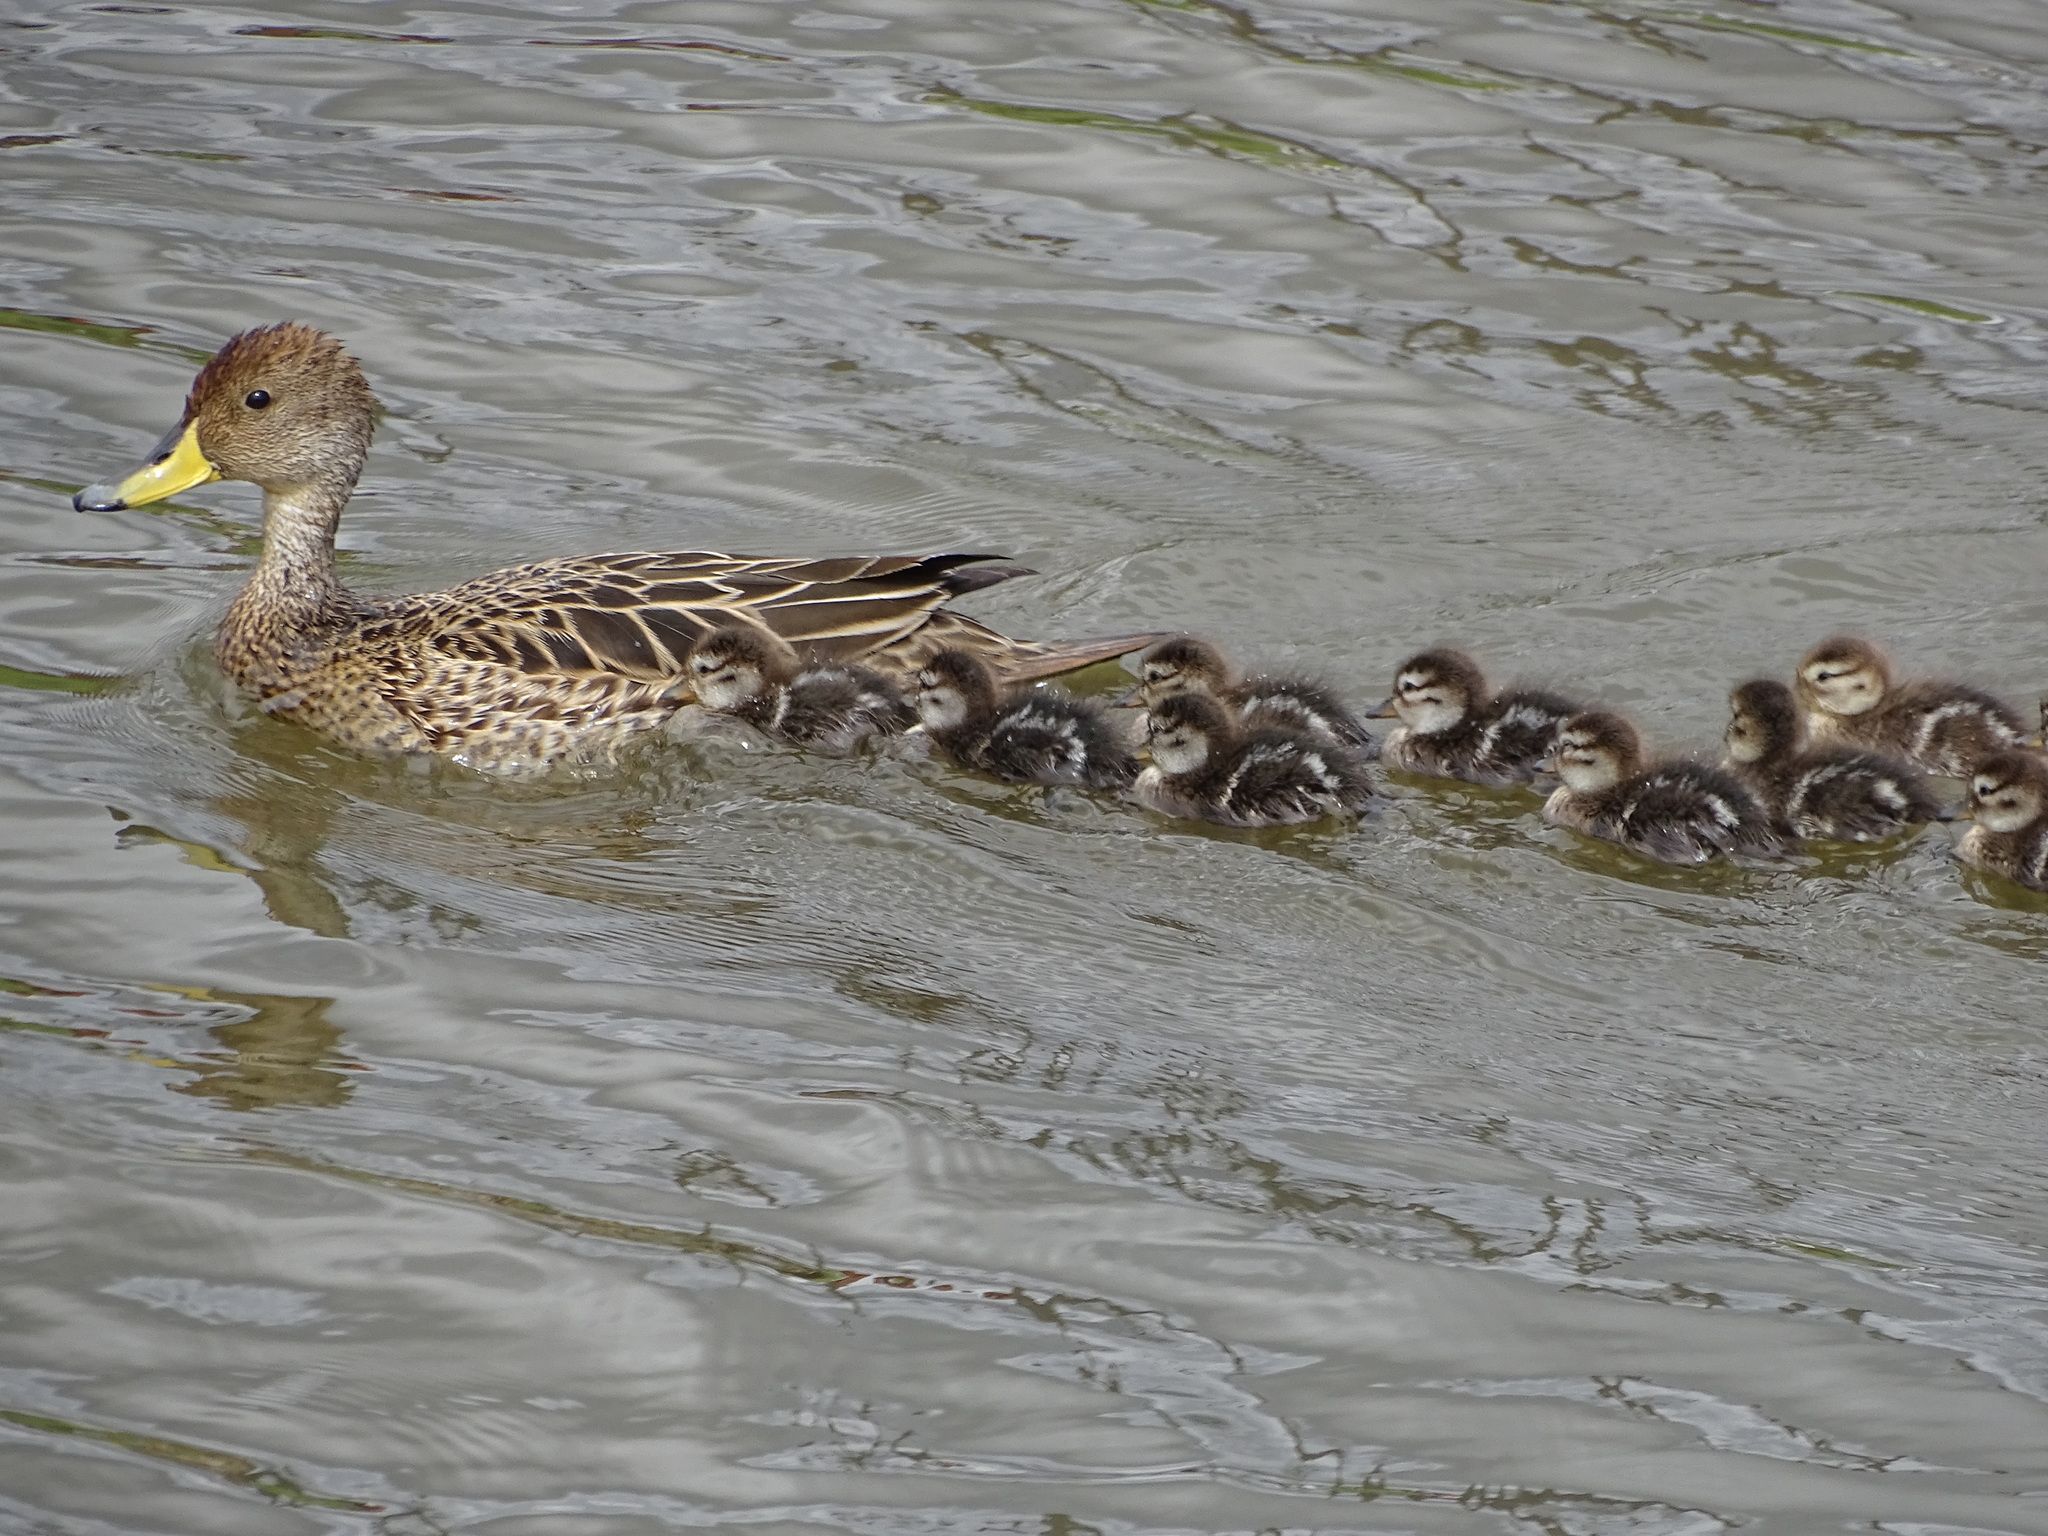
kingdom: Animalia
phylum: Chordata
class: Aves
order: Anseriformes
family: Anatidae
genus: Anas
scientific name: Anas georgica
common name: Yellow-billed pintail
